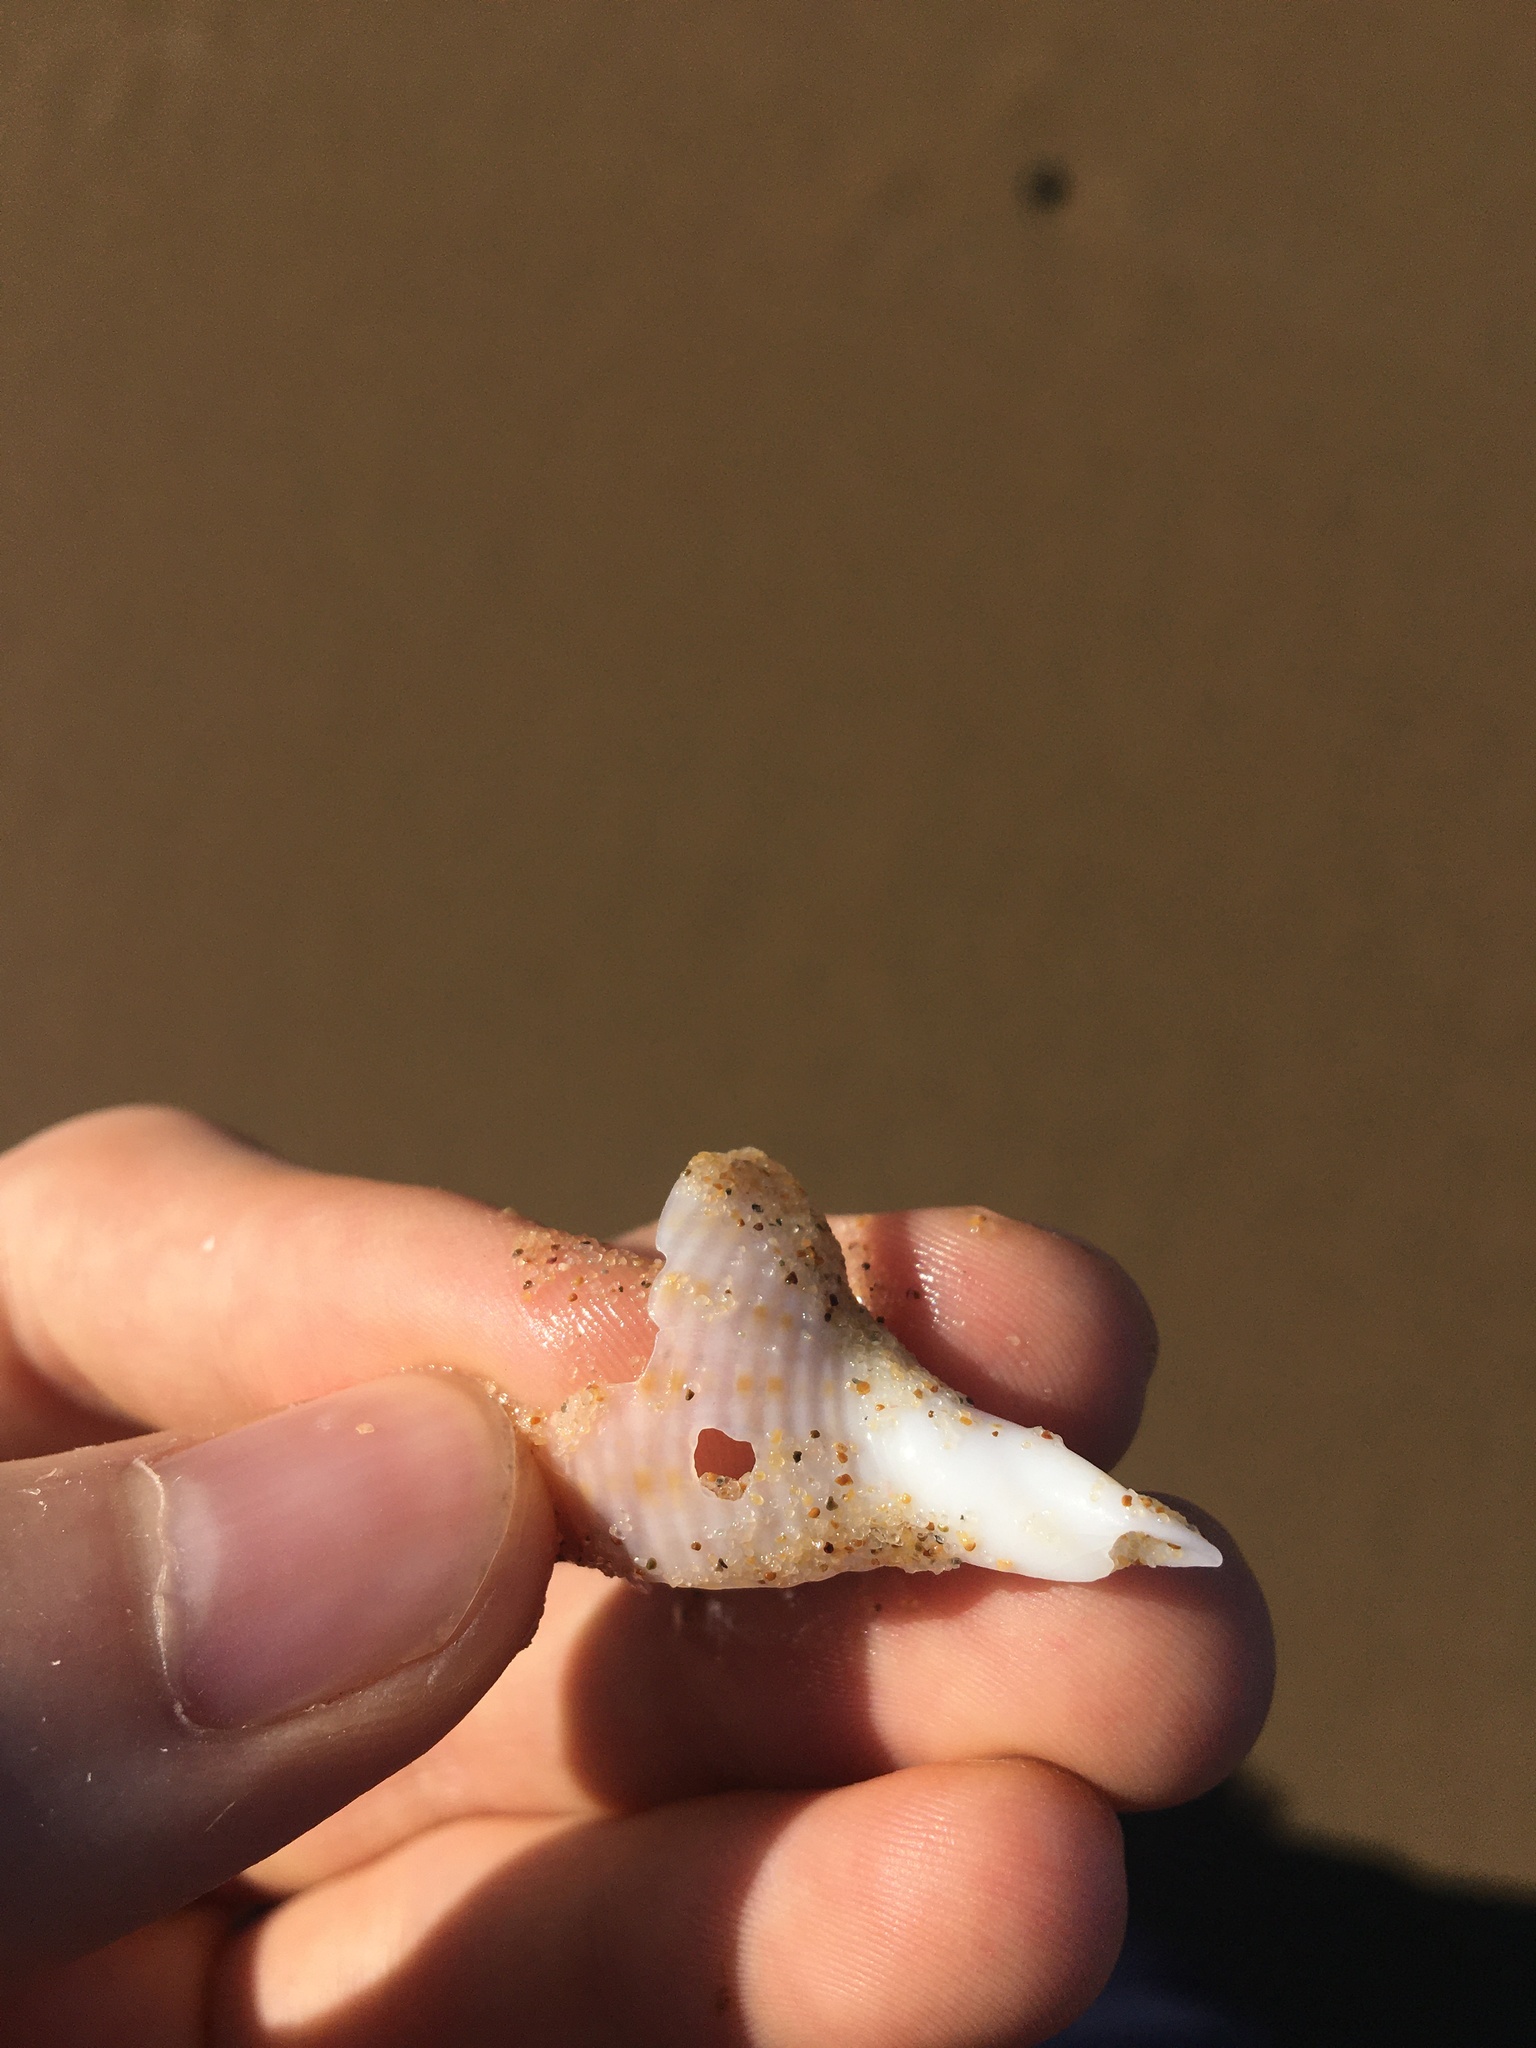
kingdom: Animalia
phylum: Mollusca
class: Gastropoda
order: Littorinimorpha
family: Tonnidae
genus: Tonna
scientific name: Tonna tankervillii
